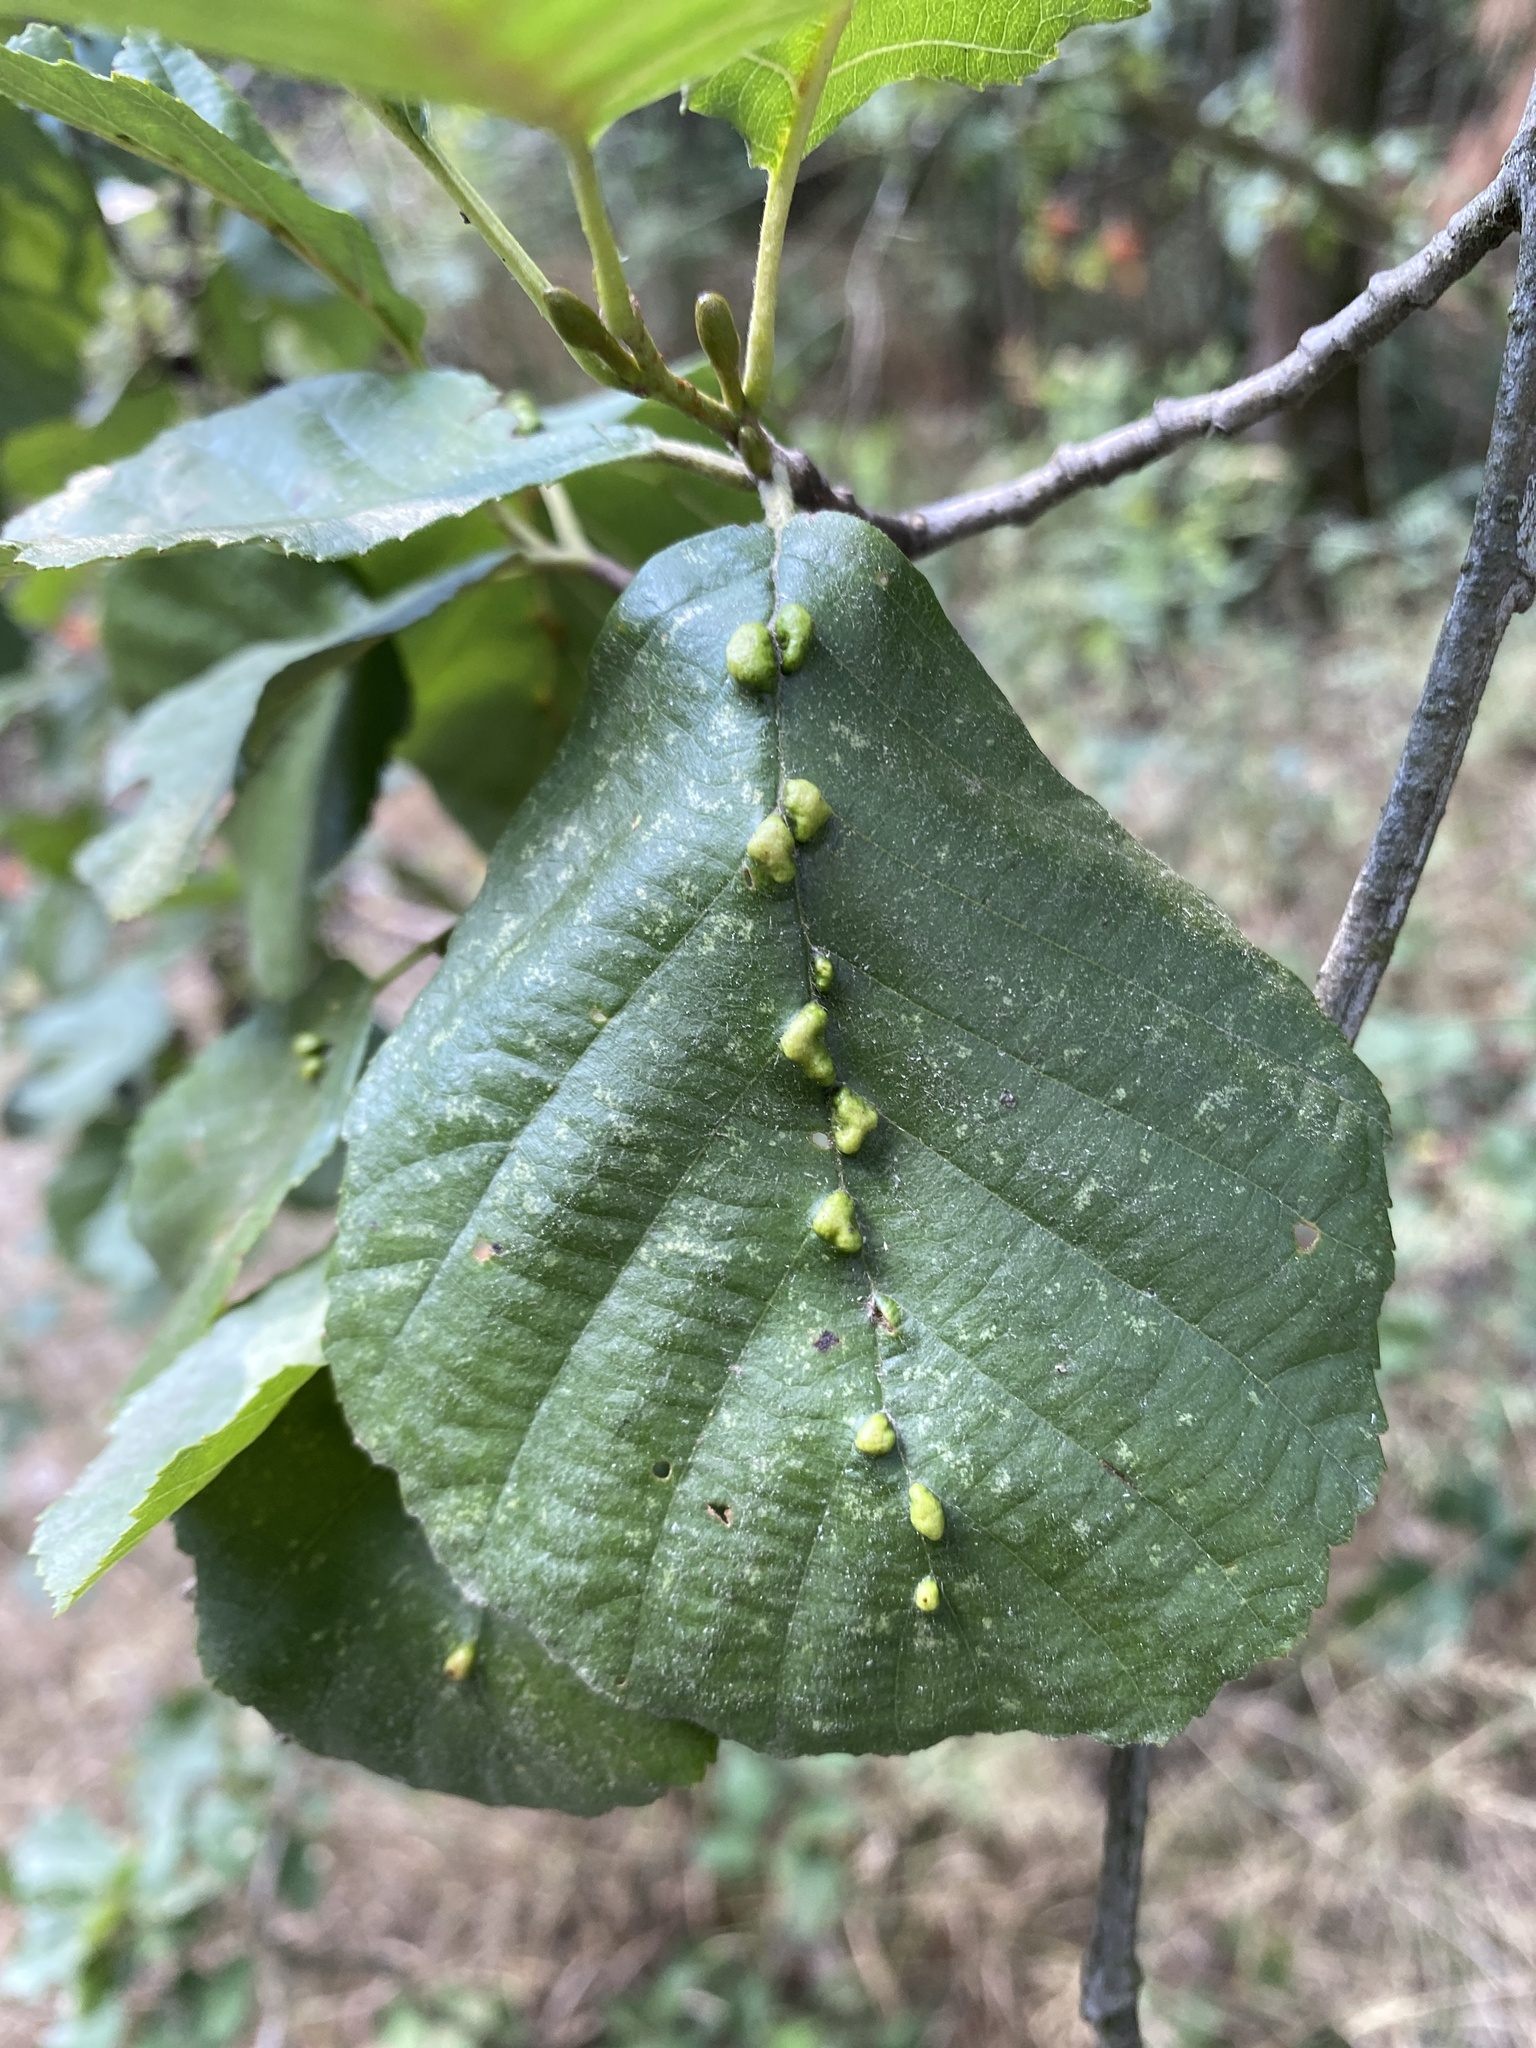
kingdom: Animalia
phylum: Arthropoda
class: Arachnida
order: Trombidiformes
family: Eriophyidae
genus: Eriophyes
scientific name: Eriophyes inangulis
